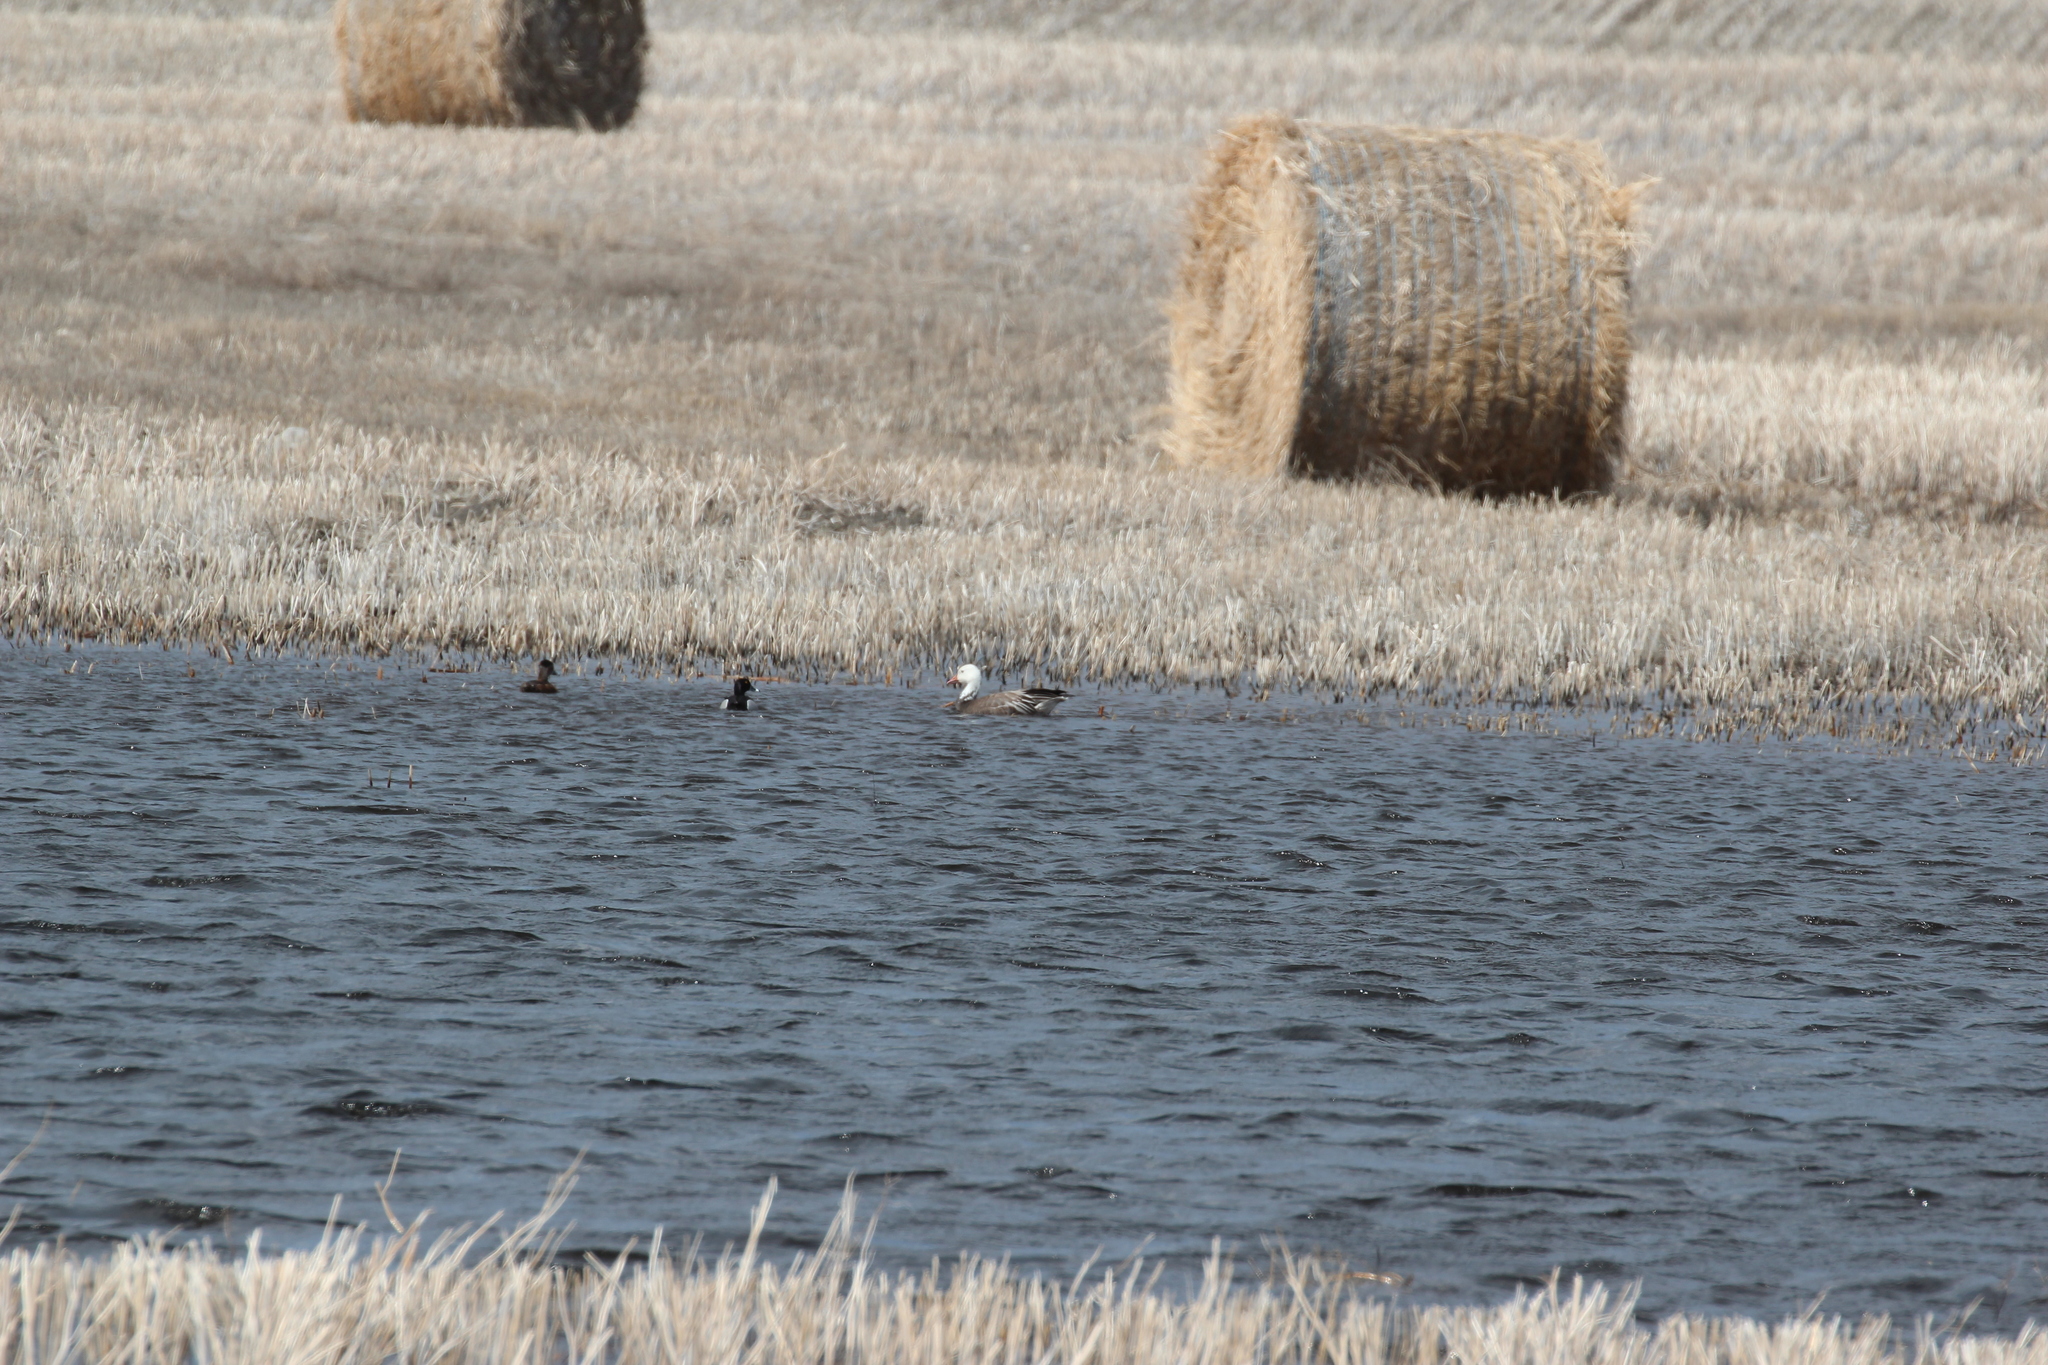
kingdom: Animalia
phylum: Chordata
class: Aves
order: Anseriformes
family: Anatidae
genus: Aythya
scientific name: Aythya collaris
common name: Ring-necked duck
